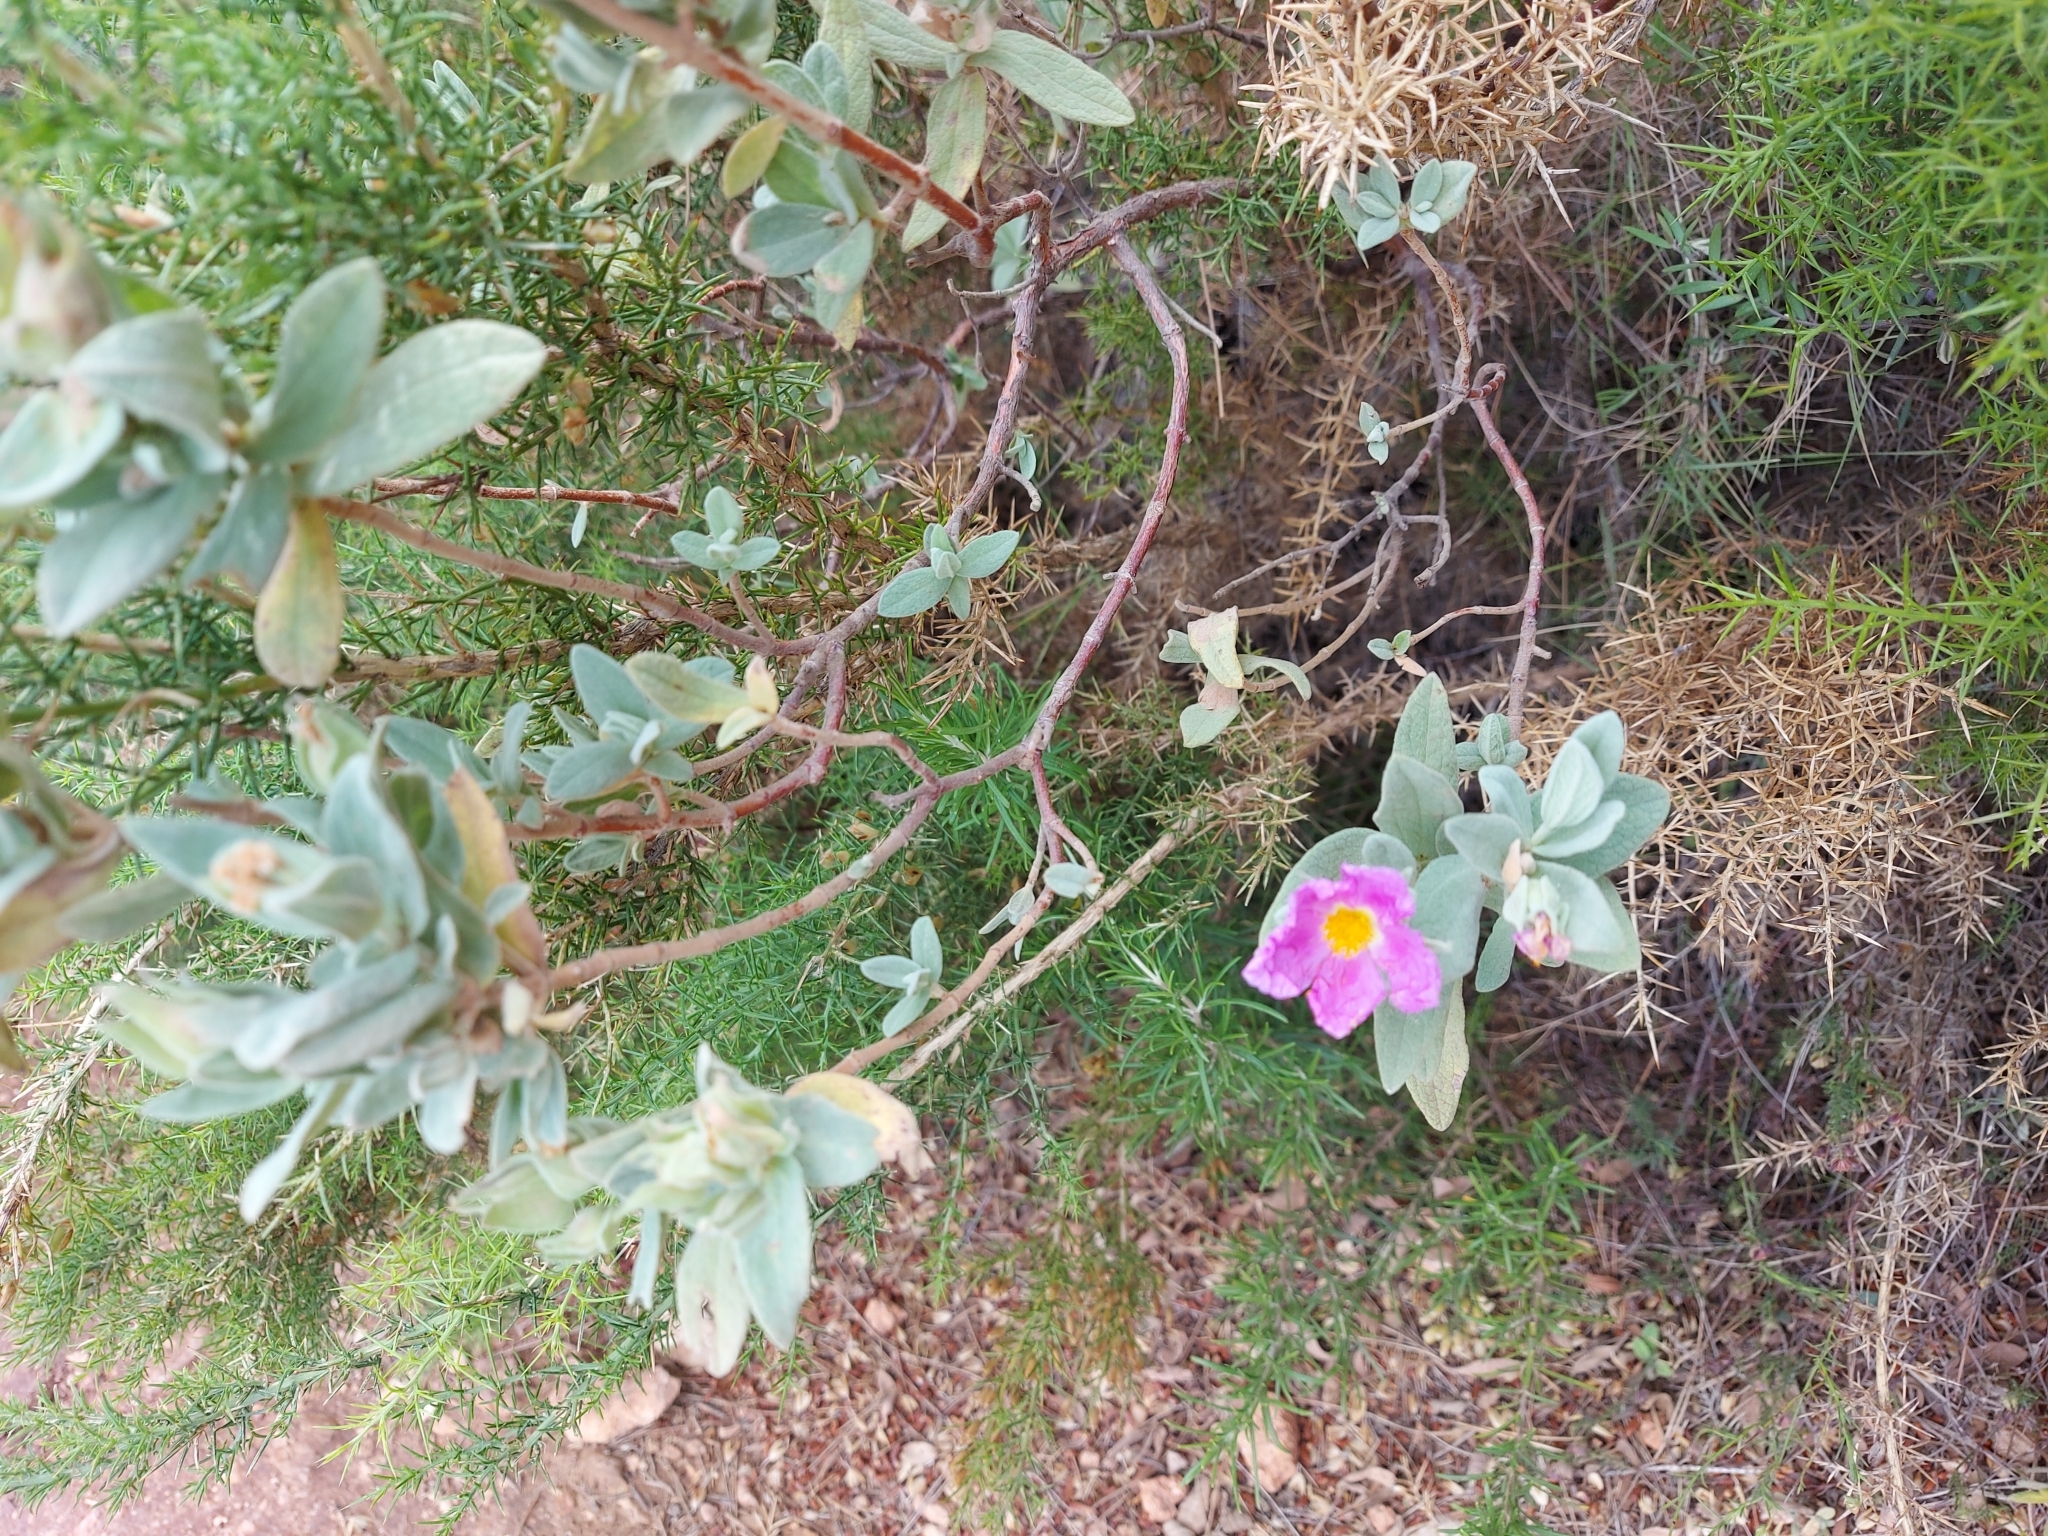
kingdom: Plantae
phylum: Tracheophyta
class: Magnoliopsida
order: Malvales
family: Cistaceae
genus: Cistus
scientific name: Cistus albidus
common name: White-leaf rock-rose
